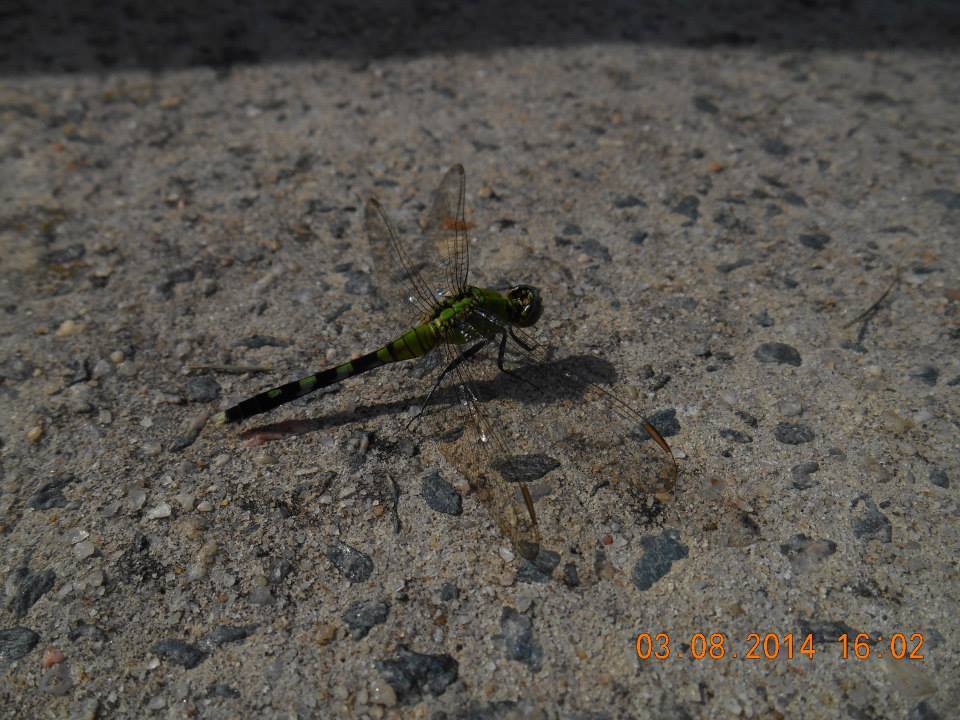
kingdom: Animalia
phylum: Arthropoda
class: Insecta
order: Odonata
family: Libellulidae
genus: Erythemis
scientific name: Erythemis simplicicollis
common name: Eastern pondhawk
